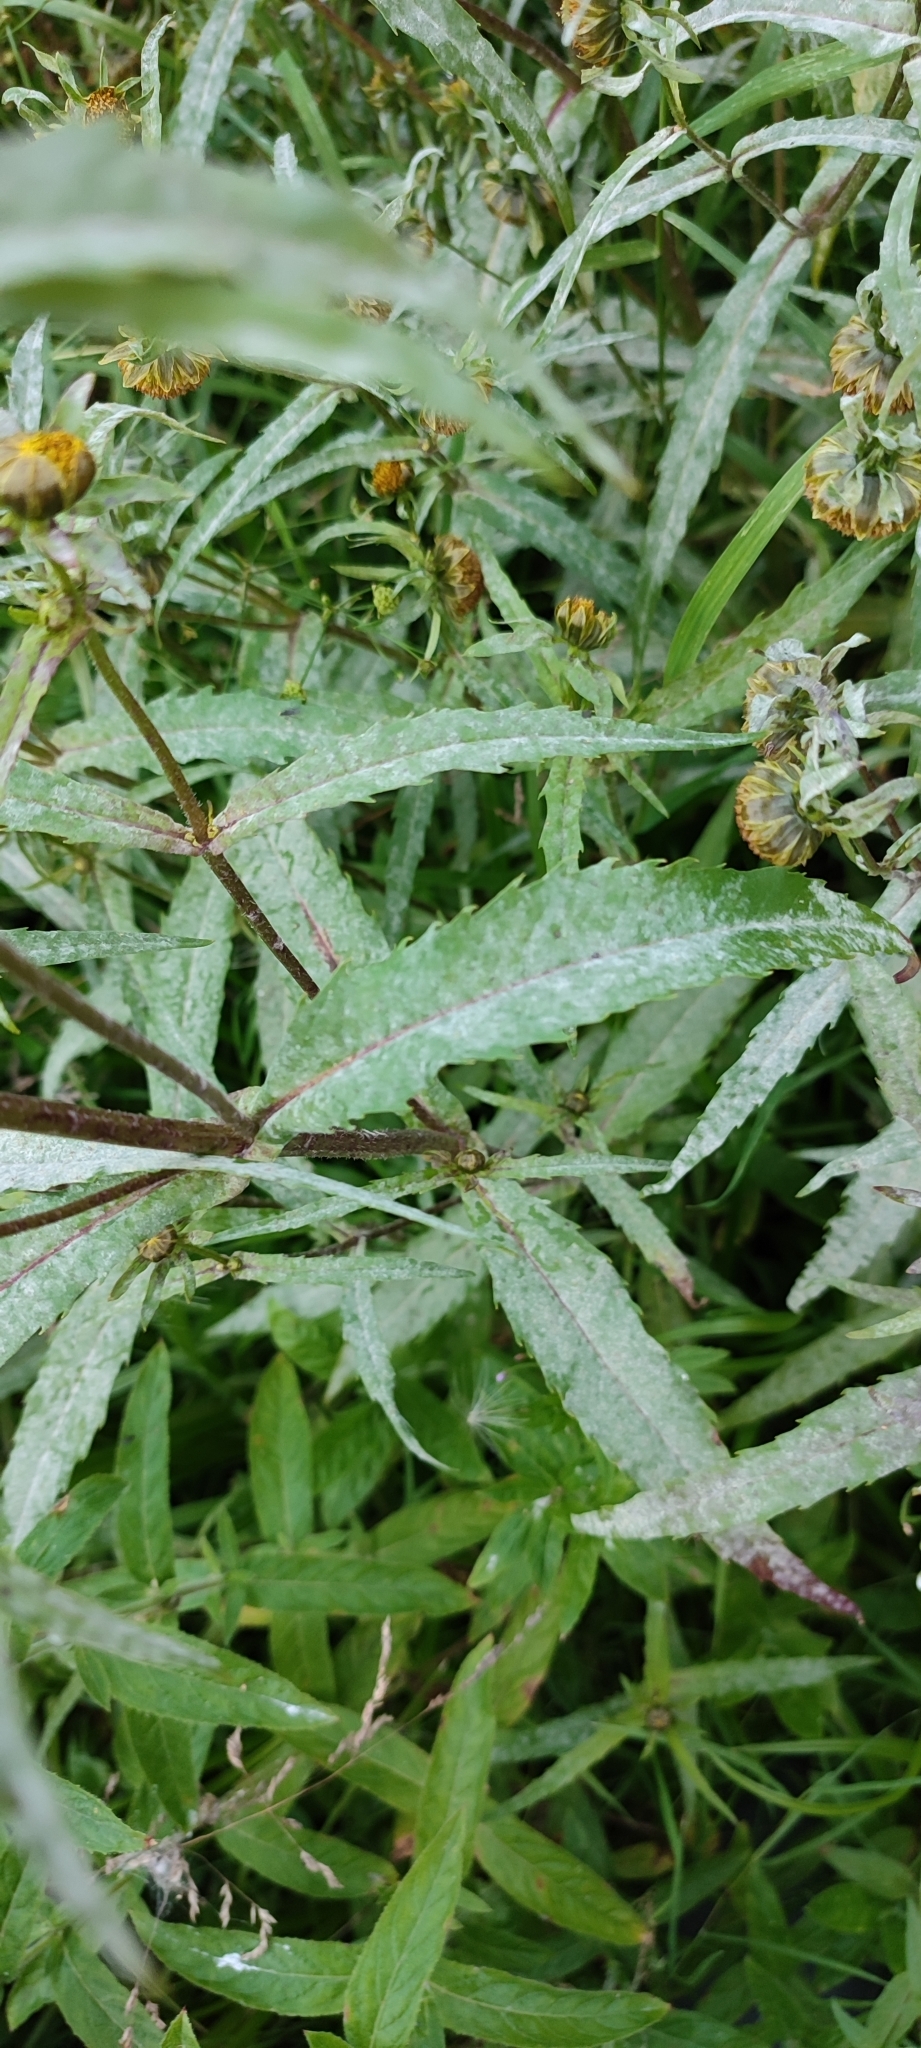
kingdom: Plantae
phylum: Tracheophyta
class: Magnoliopsida
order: Asterales
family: Asteraceae
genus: Bidens
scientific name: Bidens cernua
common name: Nodding bur-marigold
